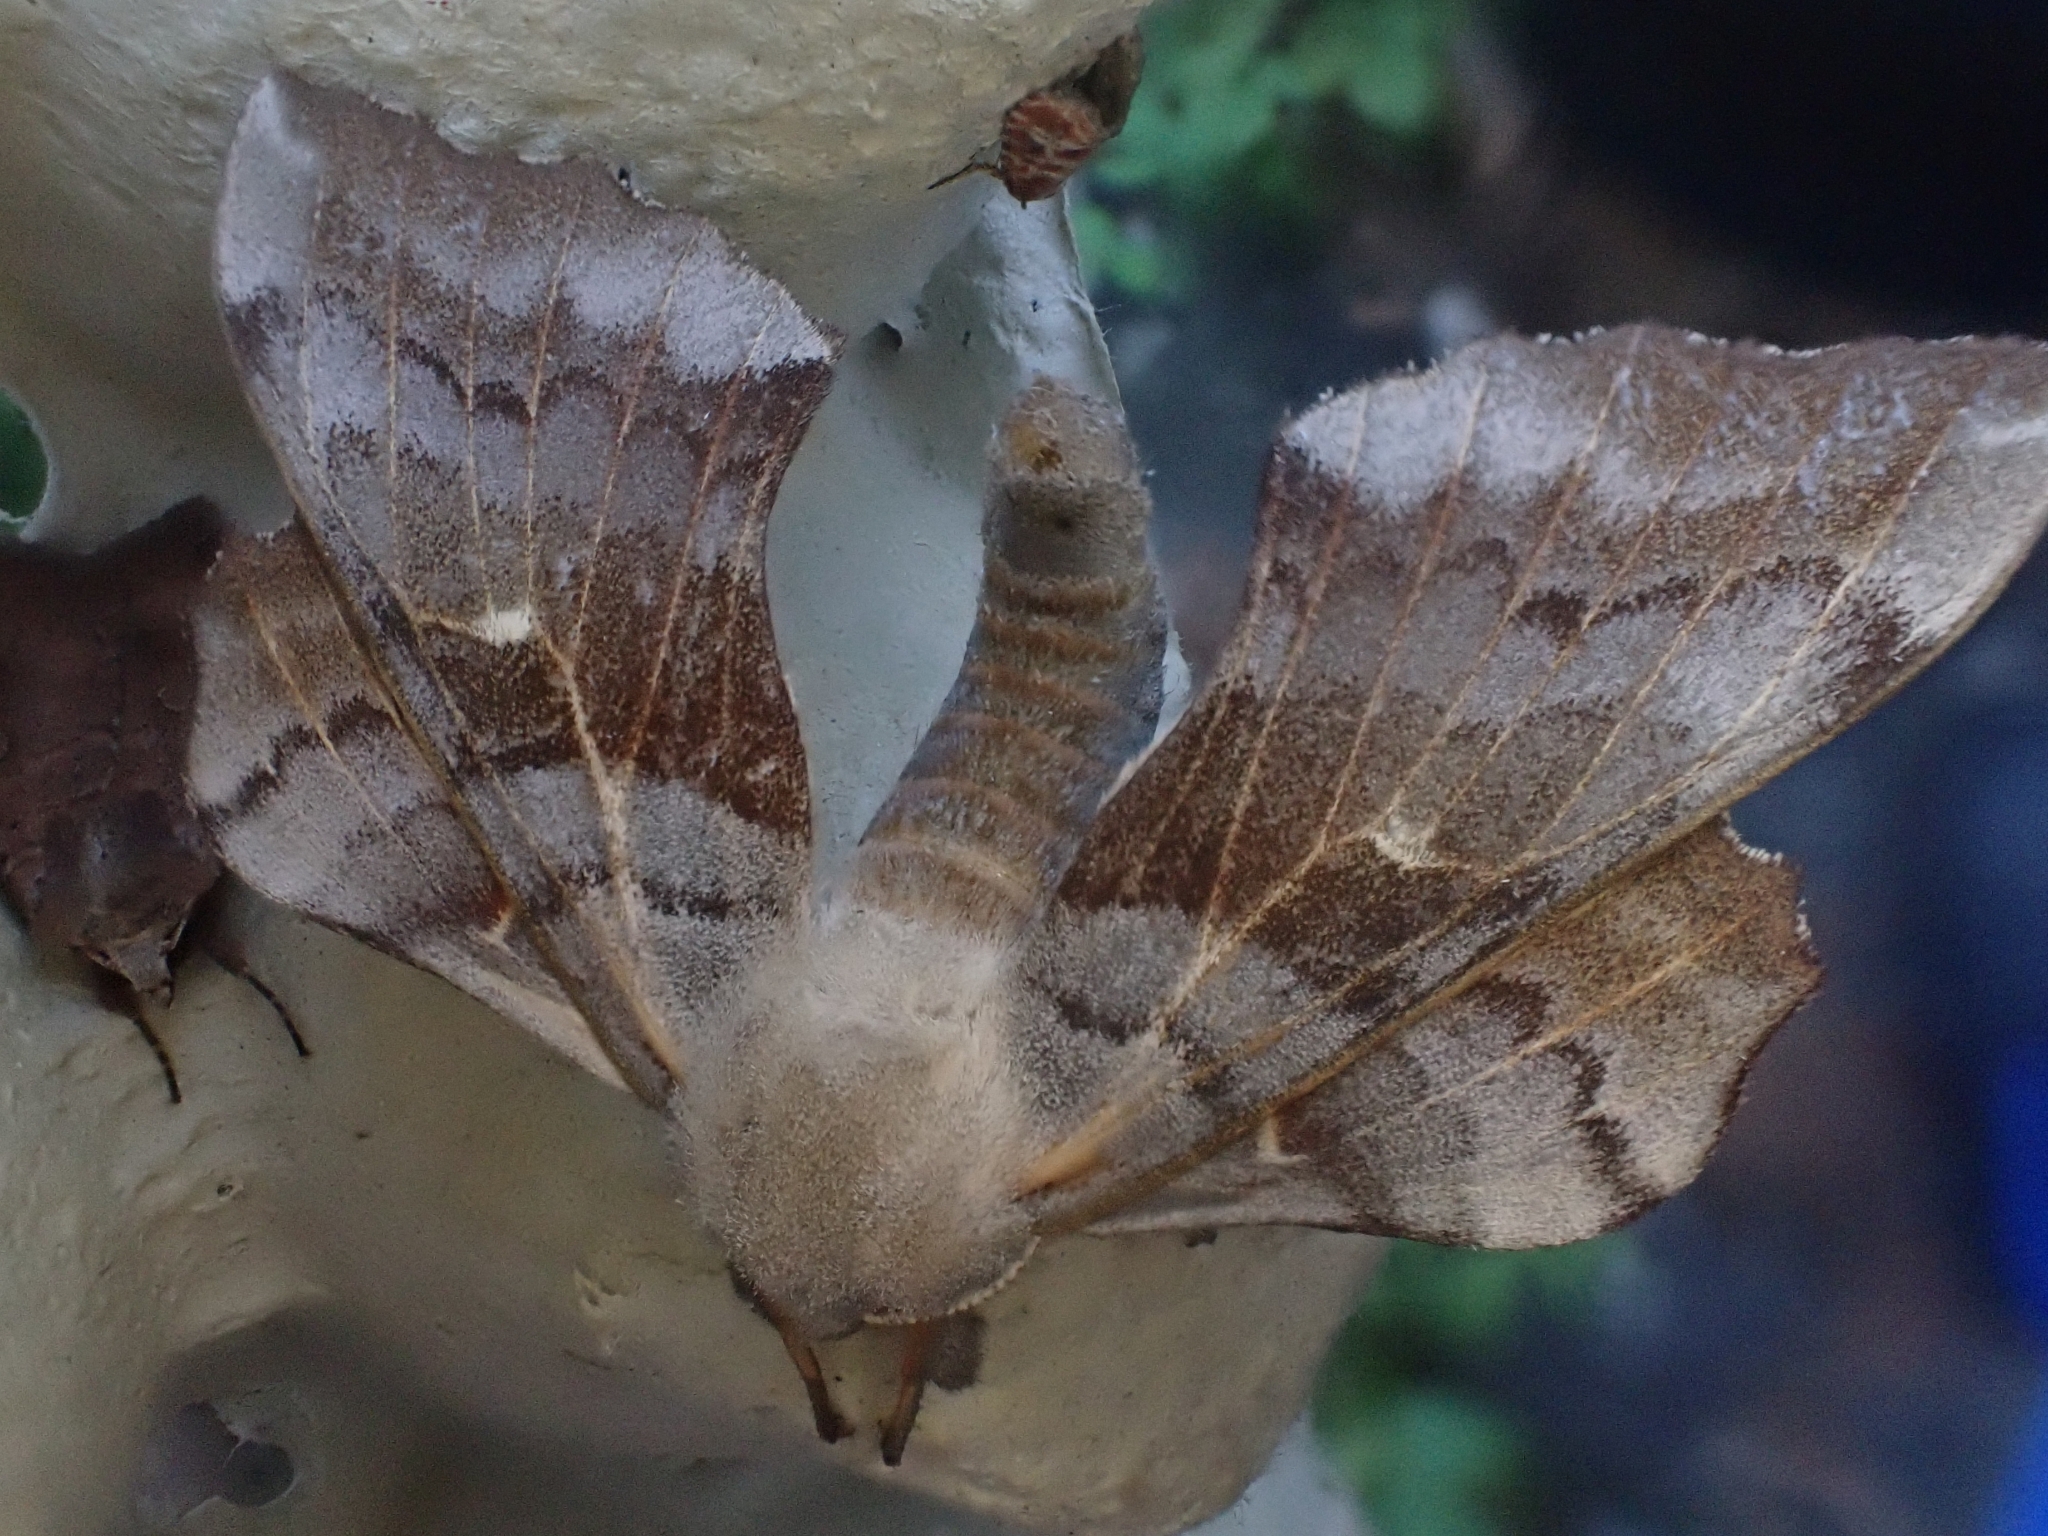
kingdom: Animalia
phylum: Arthropoda
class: Insecta
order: Lepidoptera
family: Sphingidae
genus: Laothoe
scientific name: Laothoe populi
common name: Poplar hawk-moth
